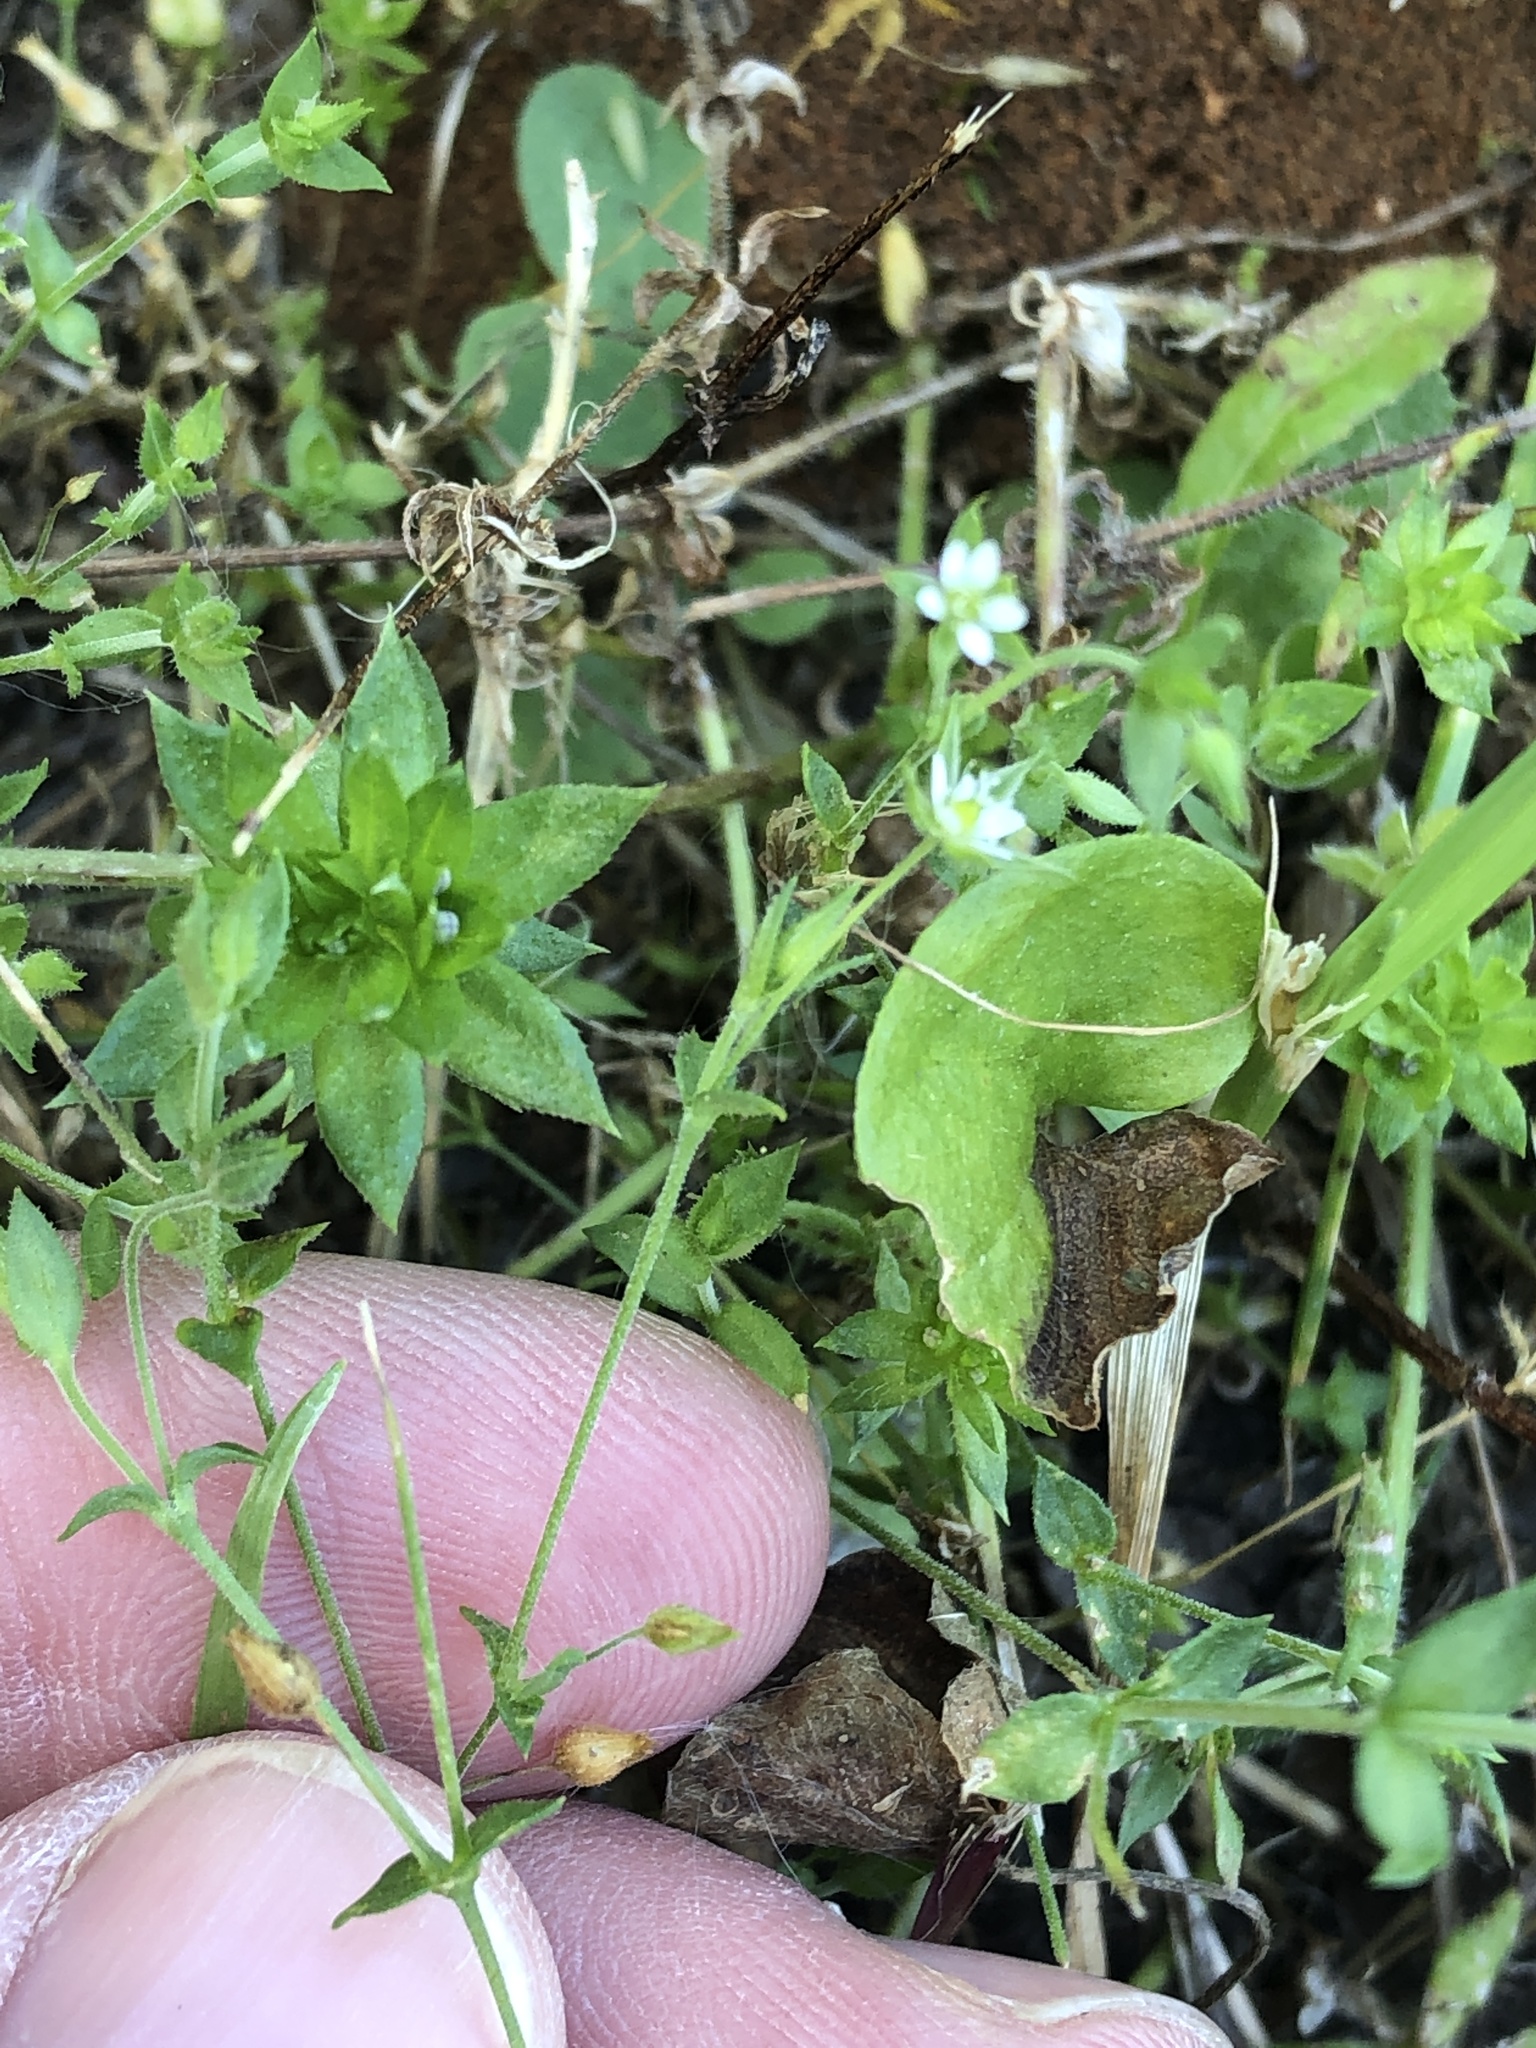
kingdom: Plantae
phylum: Tracheophyta
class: Magnoliopsida
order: Caryophyllales
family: Caryophyllaceae
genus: Arenaria
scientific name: Arenaria serpyllifolia
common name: Thyme-leaved sandwort
